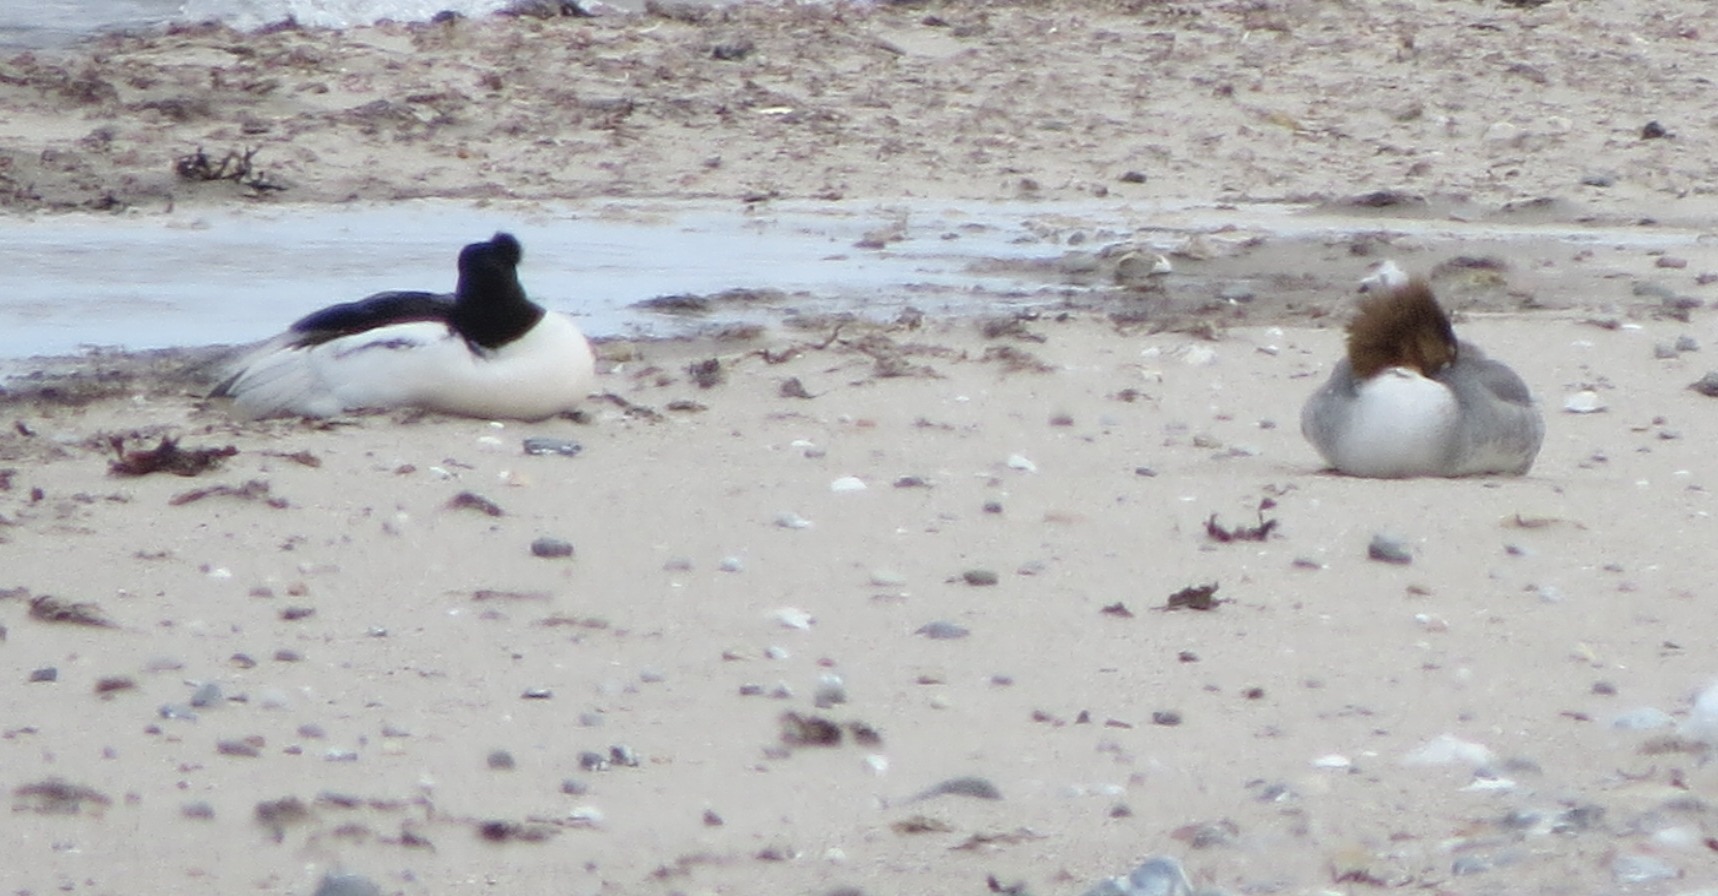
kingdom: Animalia
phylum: Chordata
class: Aves
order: Anseriformes
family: Anatidae
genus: Mergus
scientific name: Mergus merganser
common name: Common merganser
